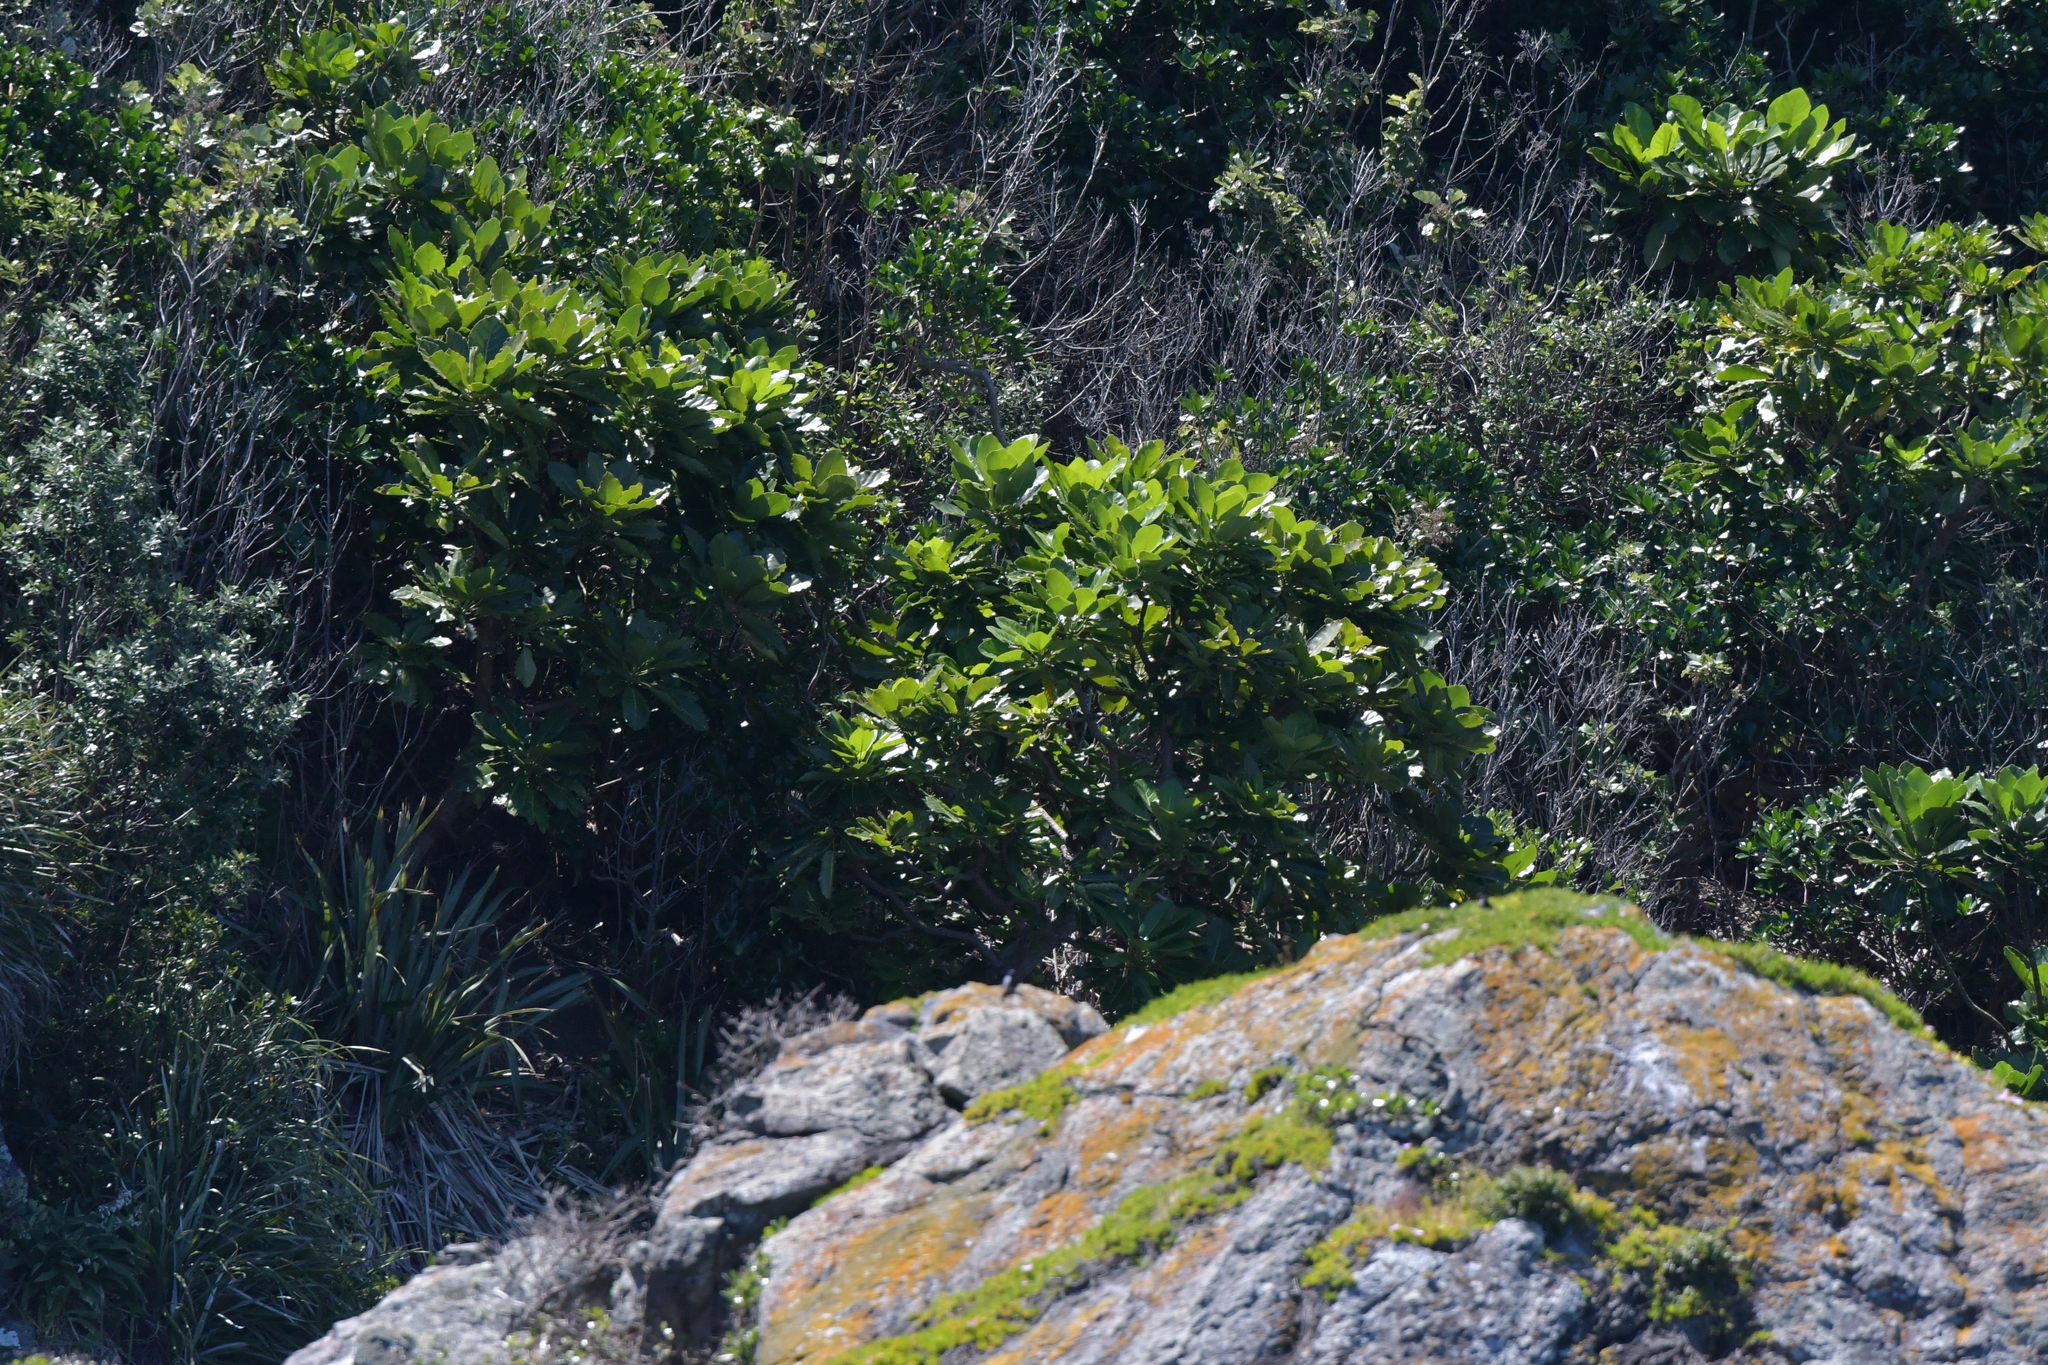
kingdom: Plantae
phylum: Tracheophyta
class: Magnoliopsida
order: Apiales
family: Araliaceae
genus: Meryta
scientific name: Meryta sinclairii
